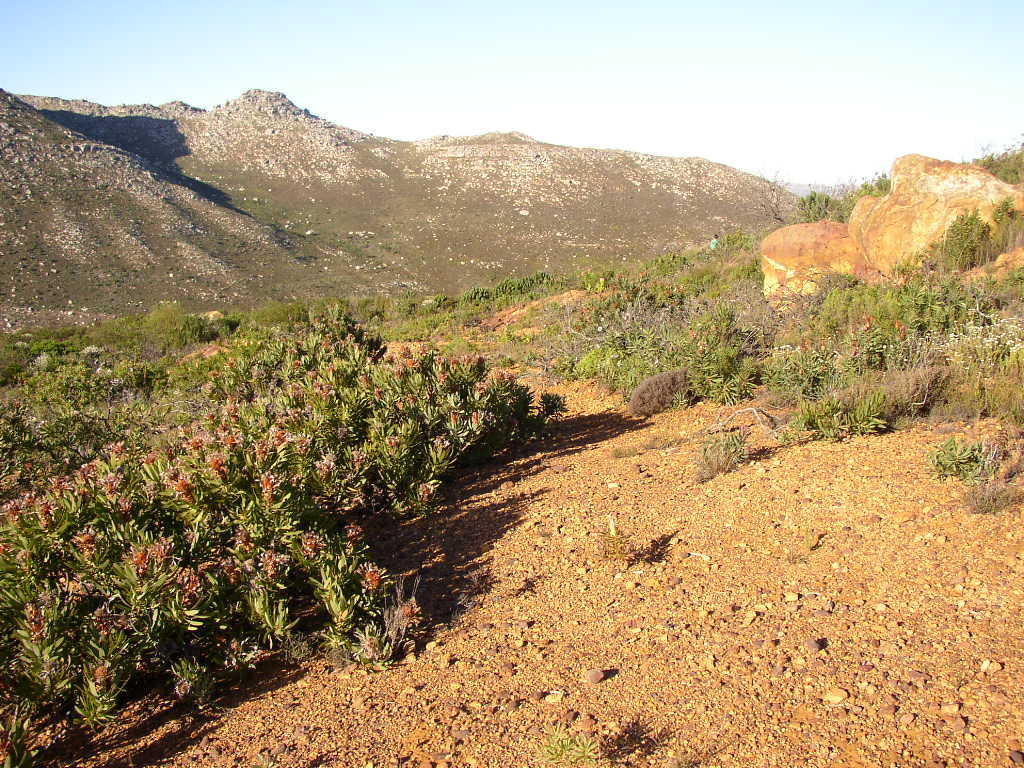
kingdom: Plantae
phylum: Tracheophyta
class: Magnoliopsida
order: Proteales
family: Proteaceae
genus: Protea
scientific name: Protea neriifolia
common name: Blue sugarbush
